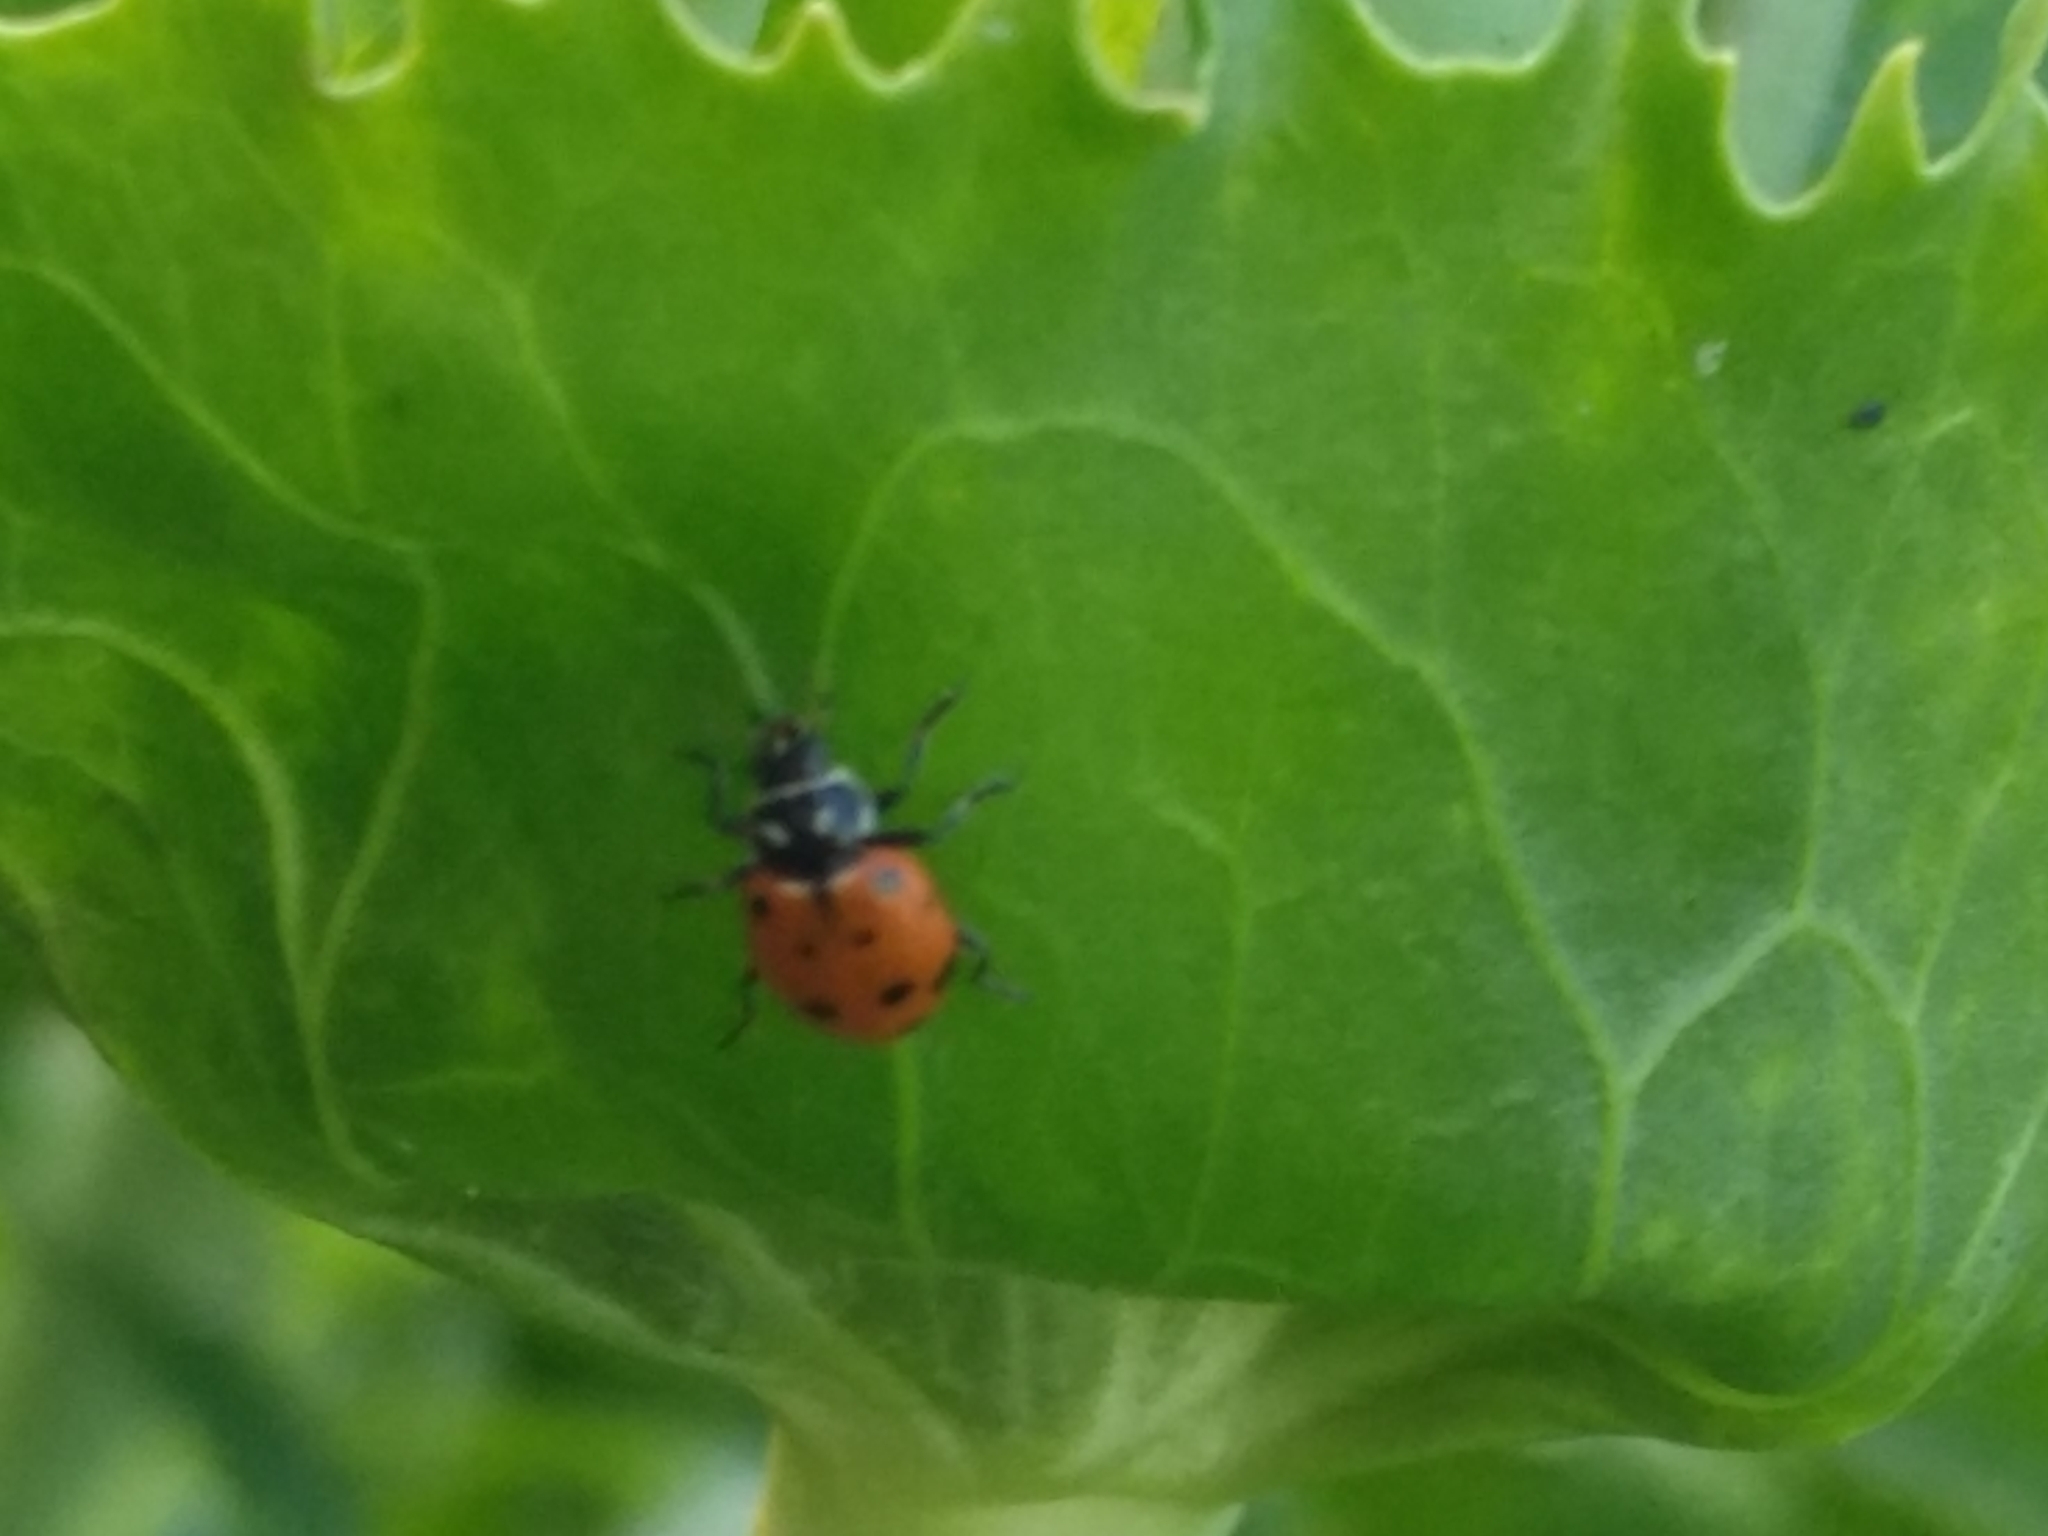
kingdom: Animalia
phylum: Arthropoda
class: Insecta
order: Coleoptera
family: Coccinellidae
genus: Hippodamia
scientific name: Hippodamia convergens
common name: Convergent lady beetle
